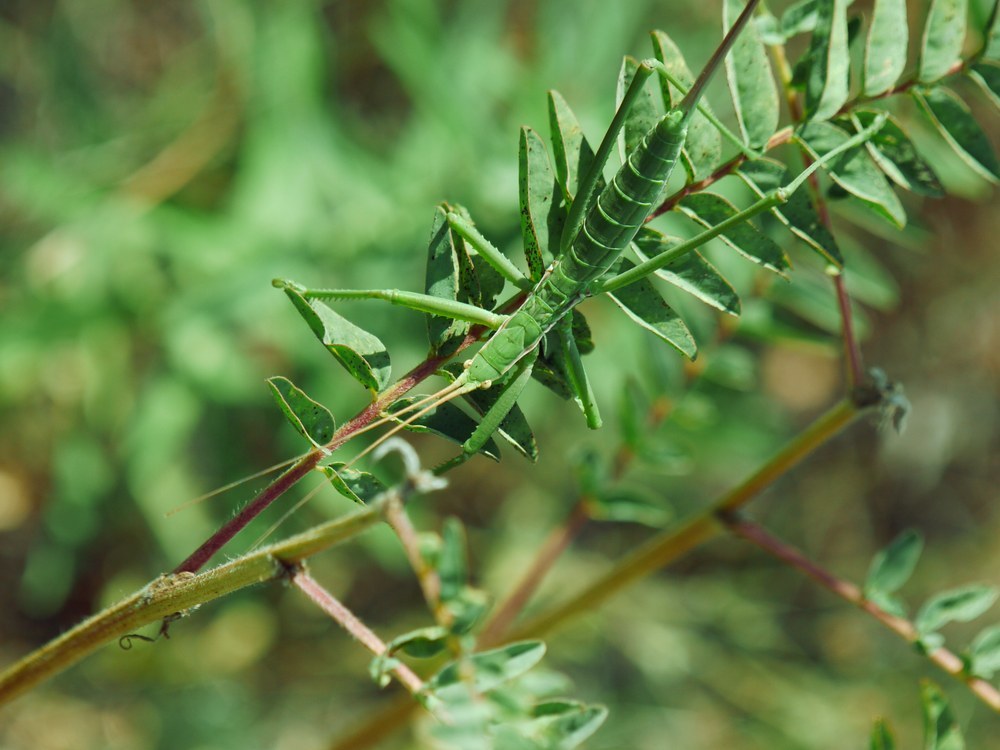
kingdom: Animalia
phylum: Arthropoda
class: Insecta
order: Orthoptera
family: Tettigoniidae
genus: Saga
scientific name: Saga pedo
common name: Common predatory bush-cricket
